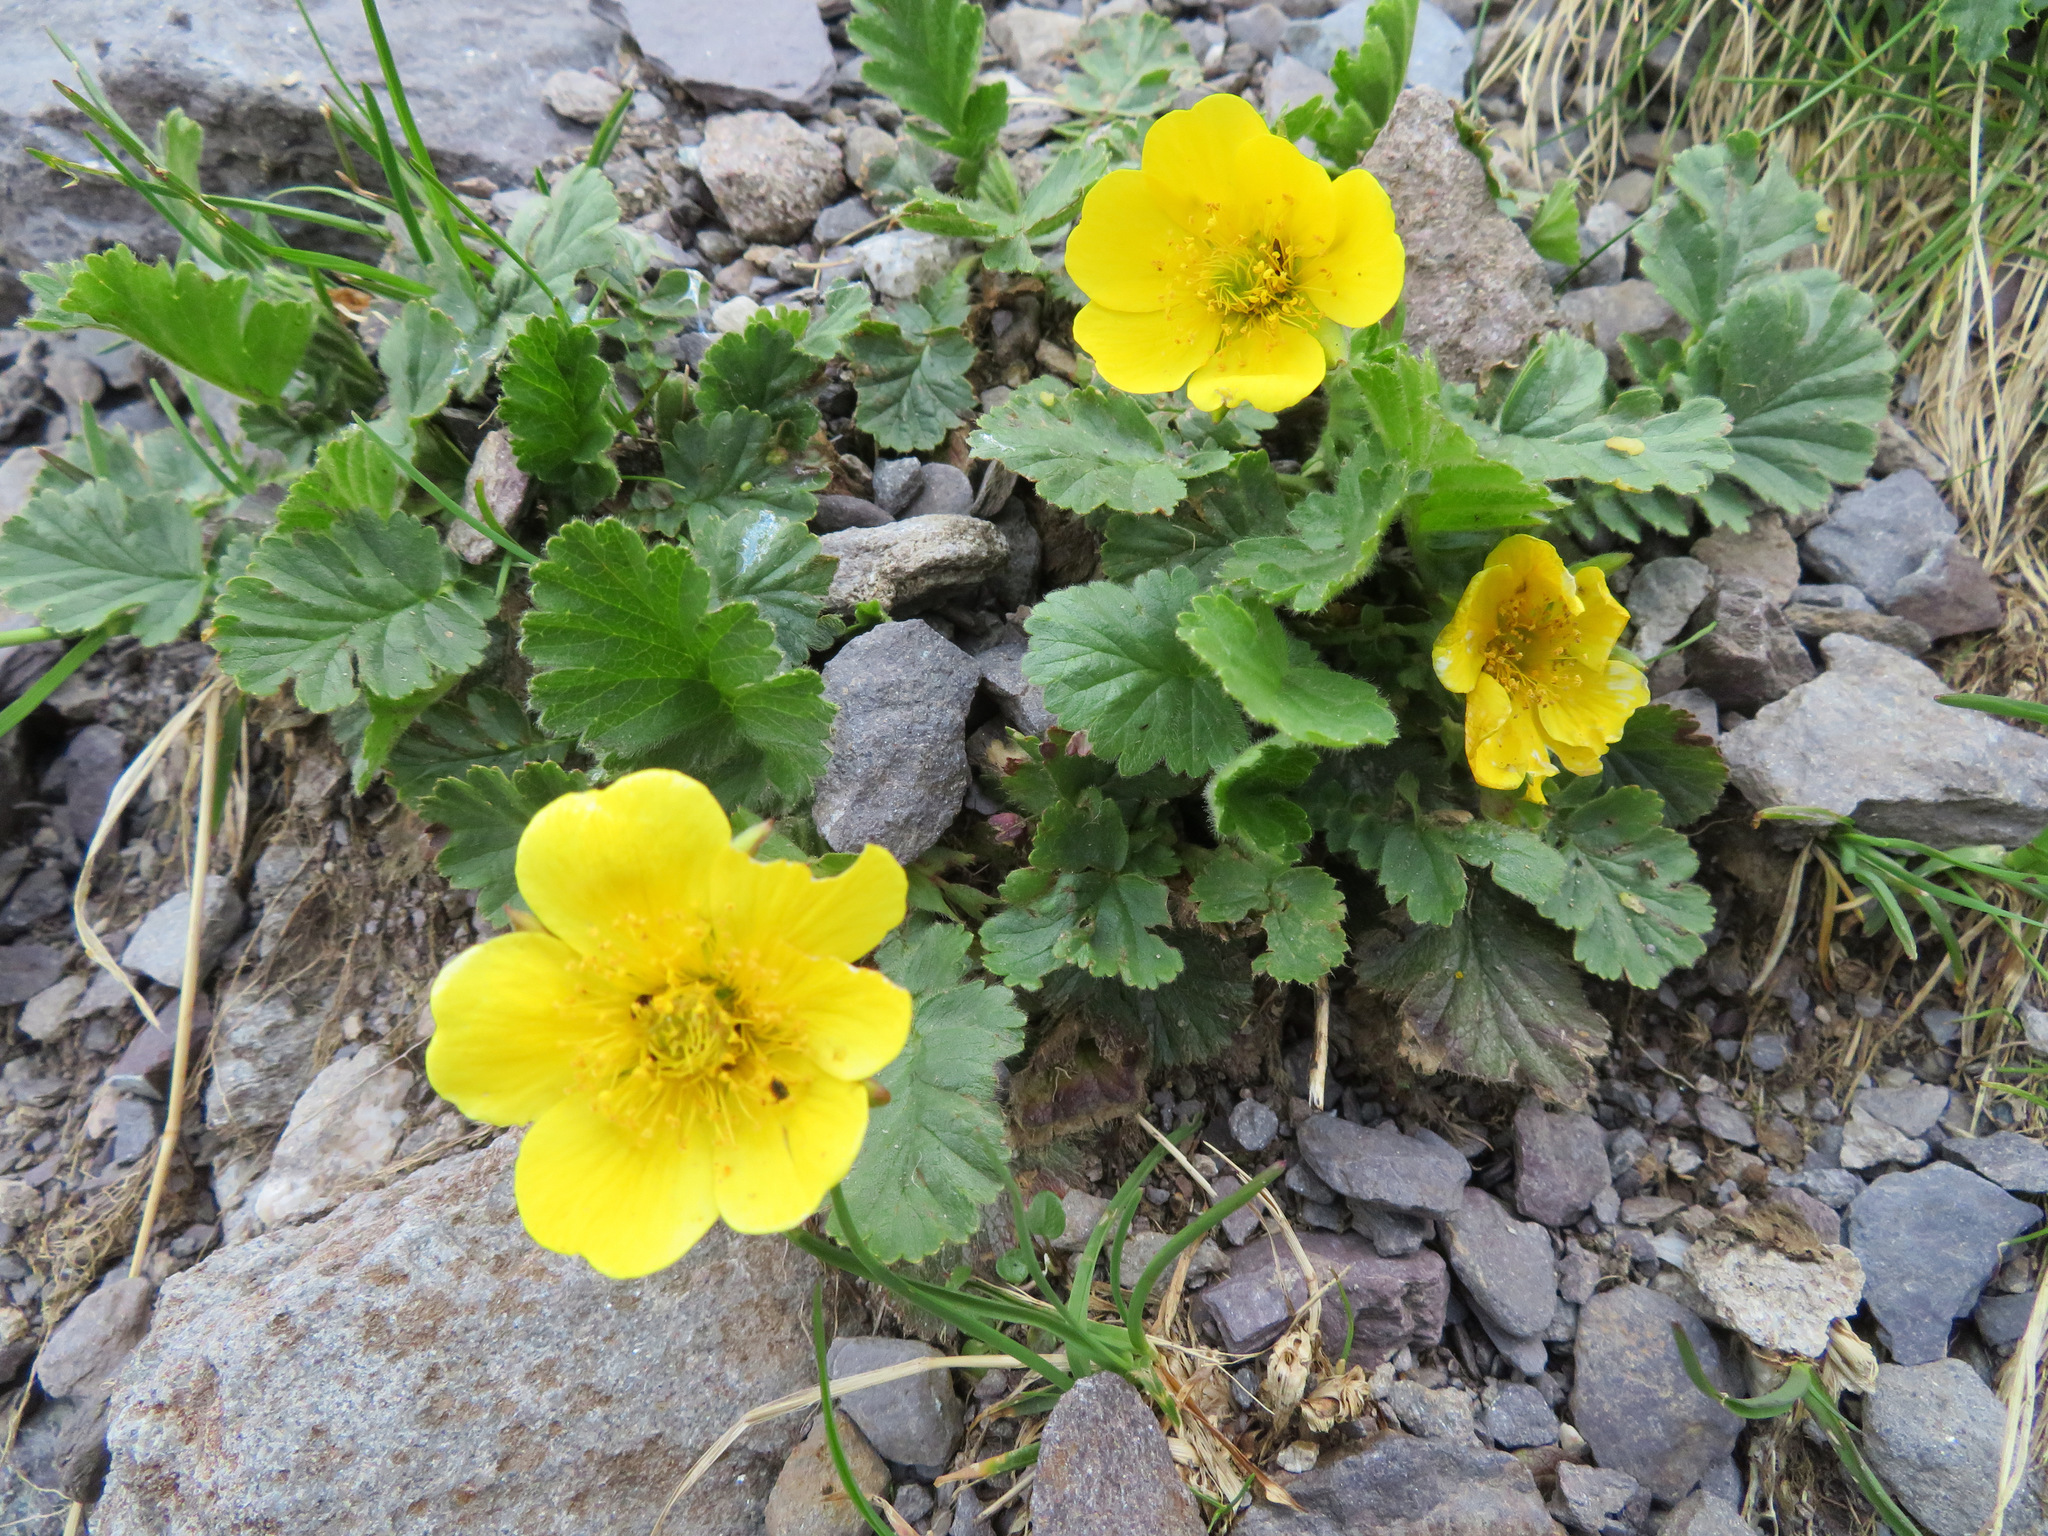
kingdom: Plantae
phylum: Tracheophyta
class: Magnoliopsida
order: Rosales
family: Rosaceae
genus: Geum
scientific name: Geum montanum
